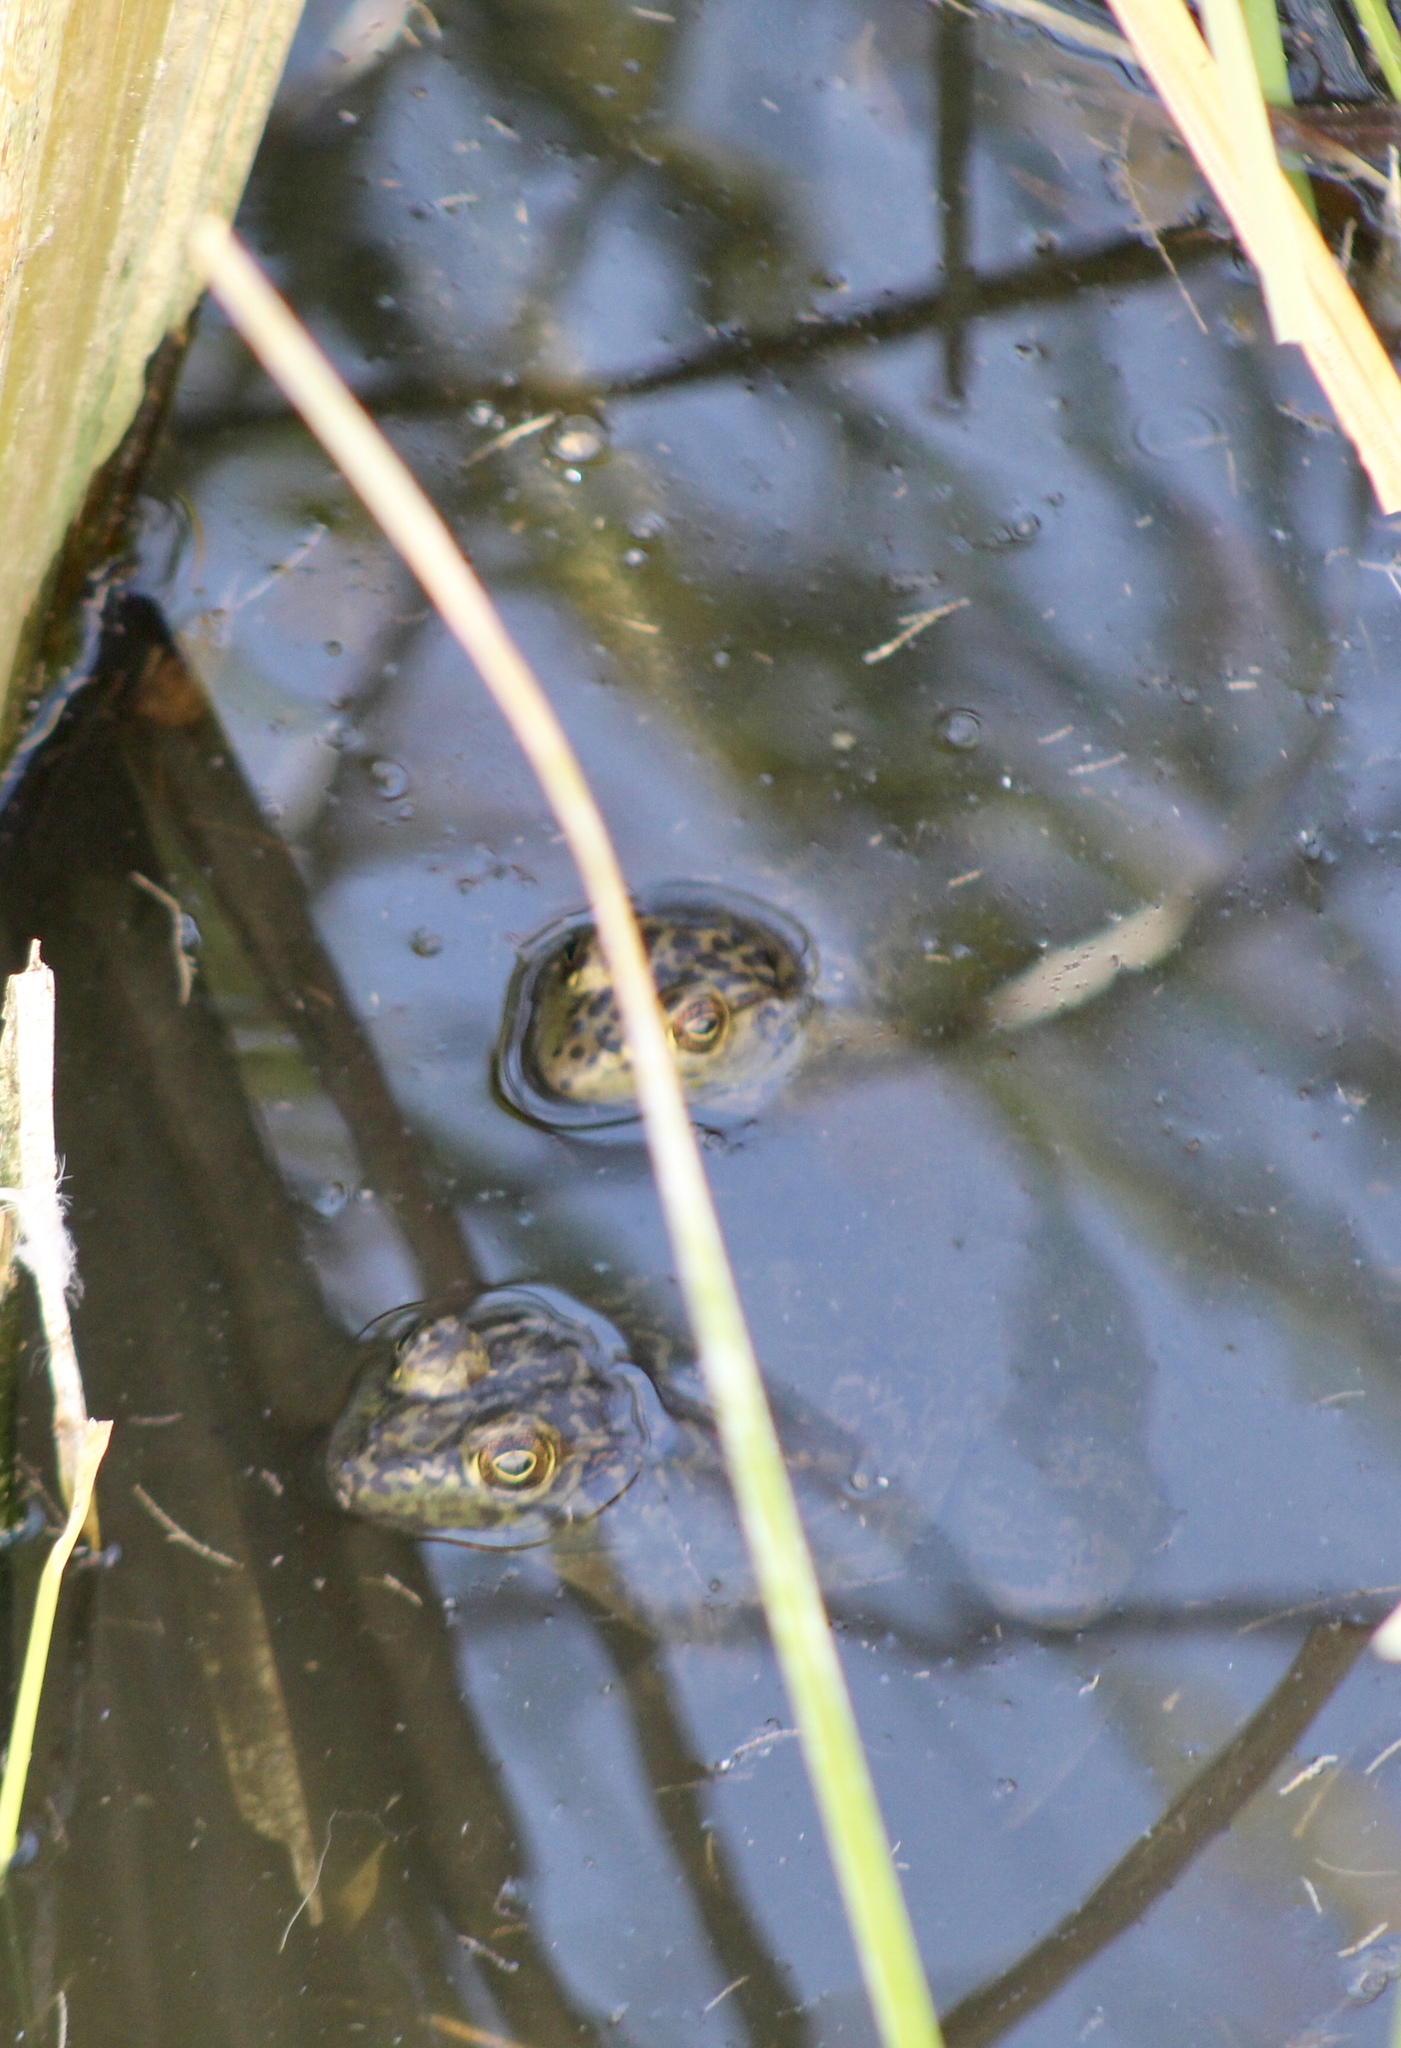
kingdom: Animalia
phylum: Chordata
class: Amphibia
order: Anura
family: Ranidae
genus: Lithobates
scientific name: Lithobates catesbeianus
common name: American bullfrog
